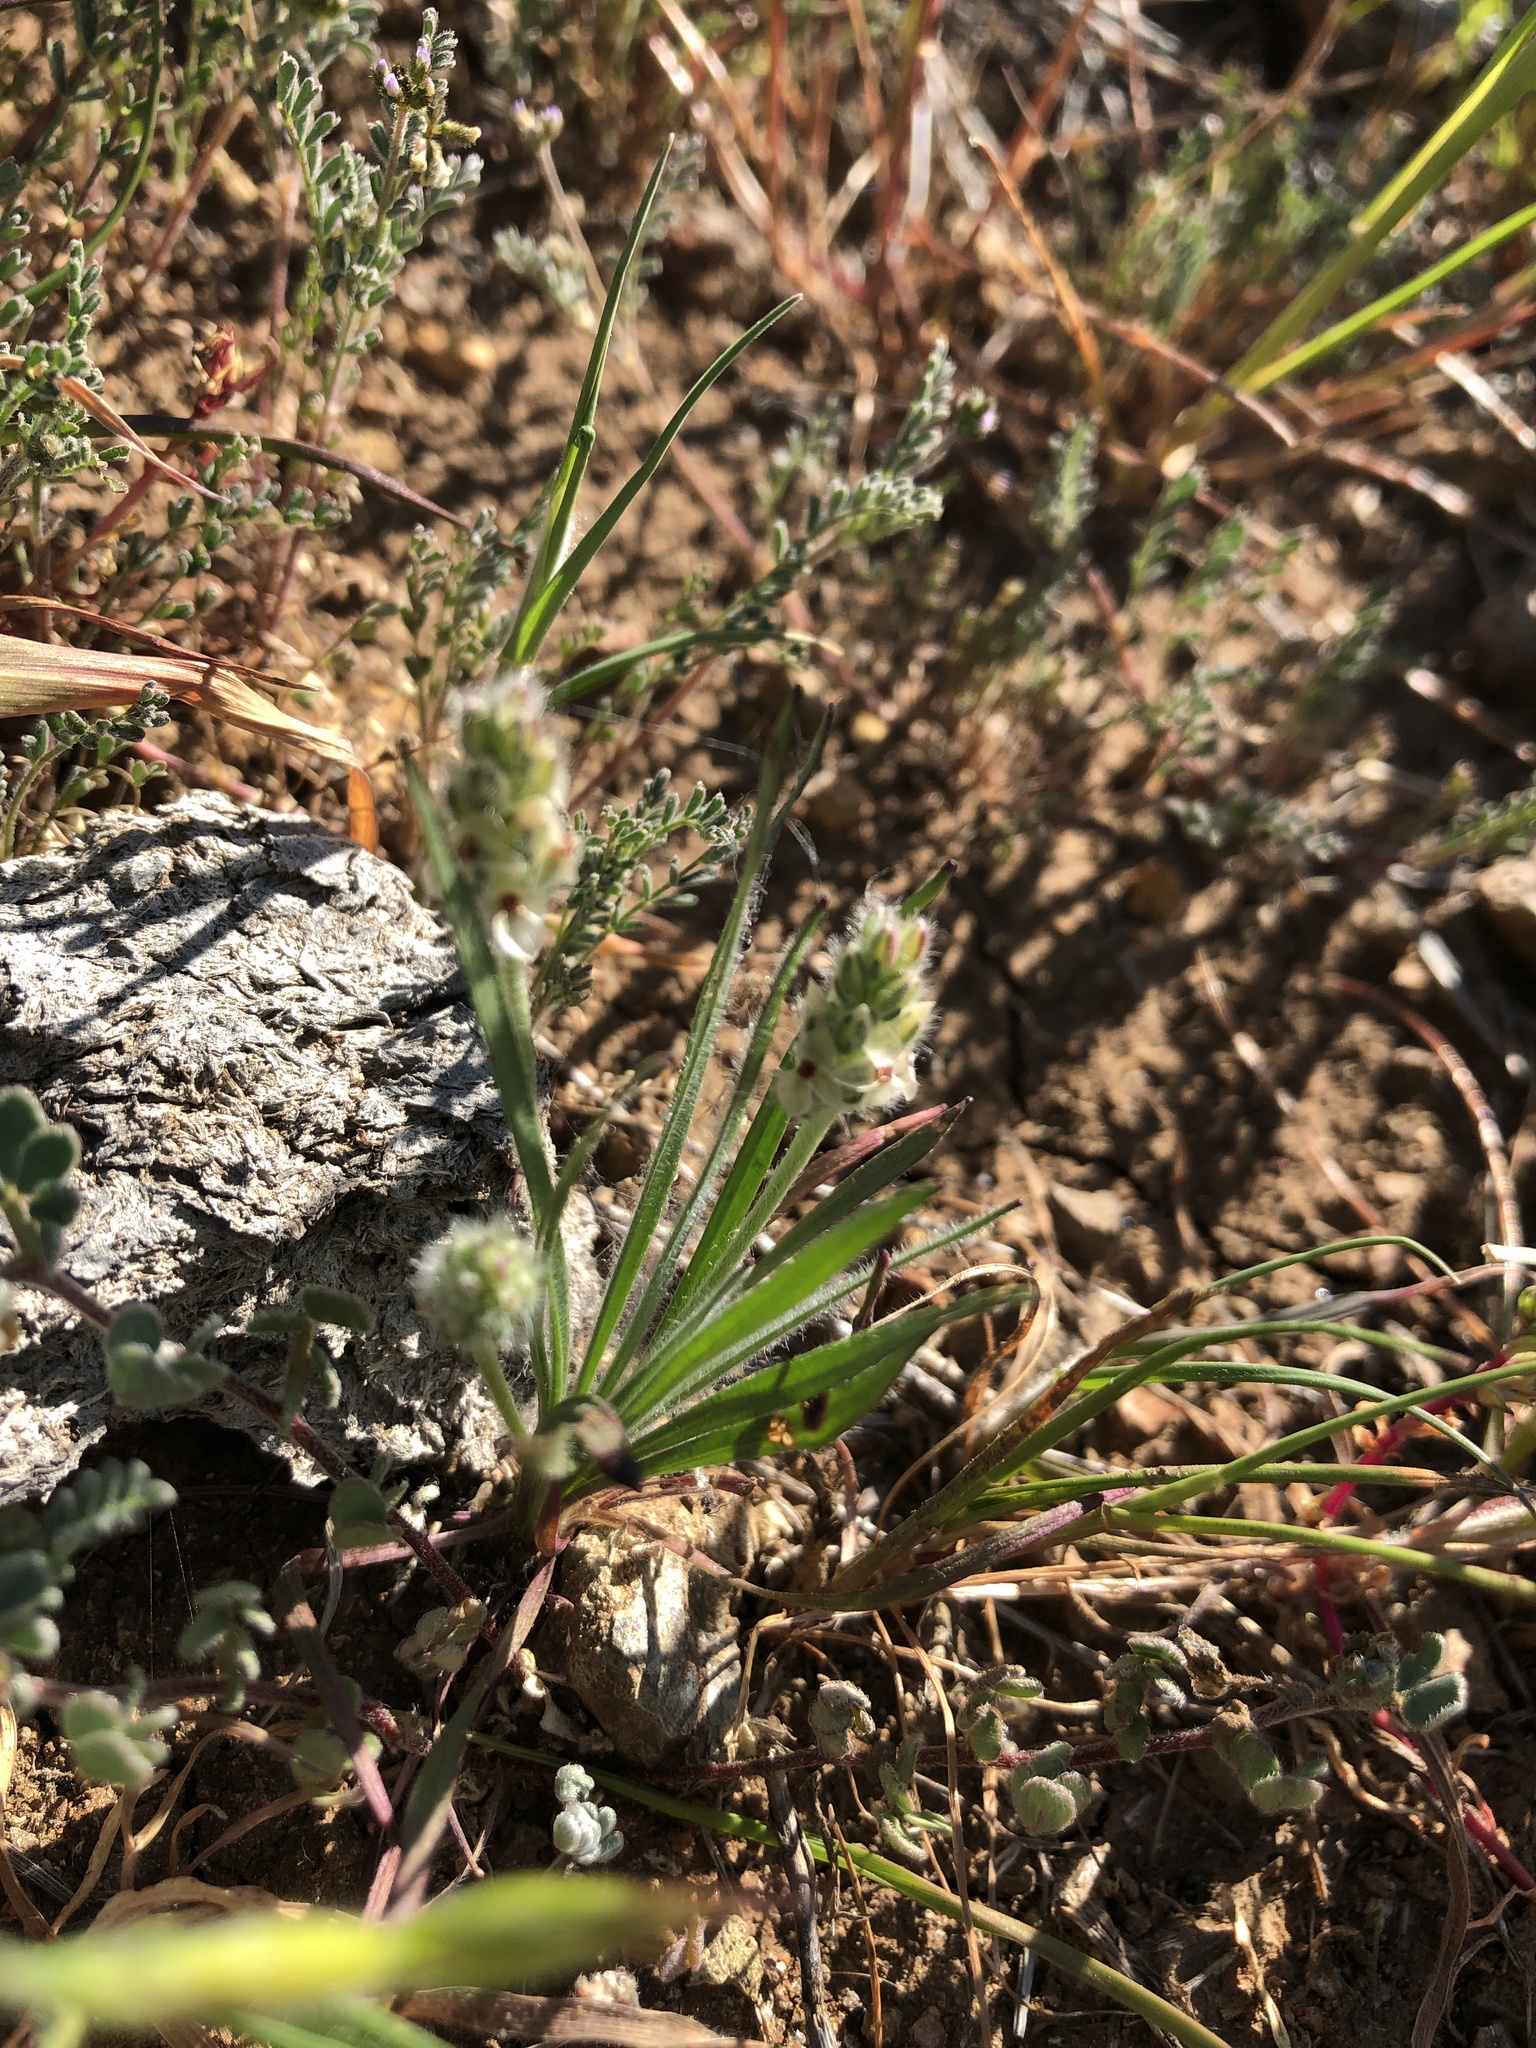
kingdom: Plantae
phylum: Tracheophyta
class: Magnoliopsida
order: Lamiales
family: Plantaginaceae
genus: Plantago
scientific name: Plantago erecta
